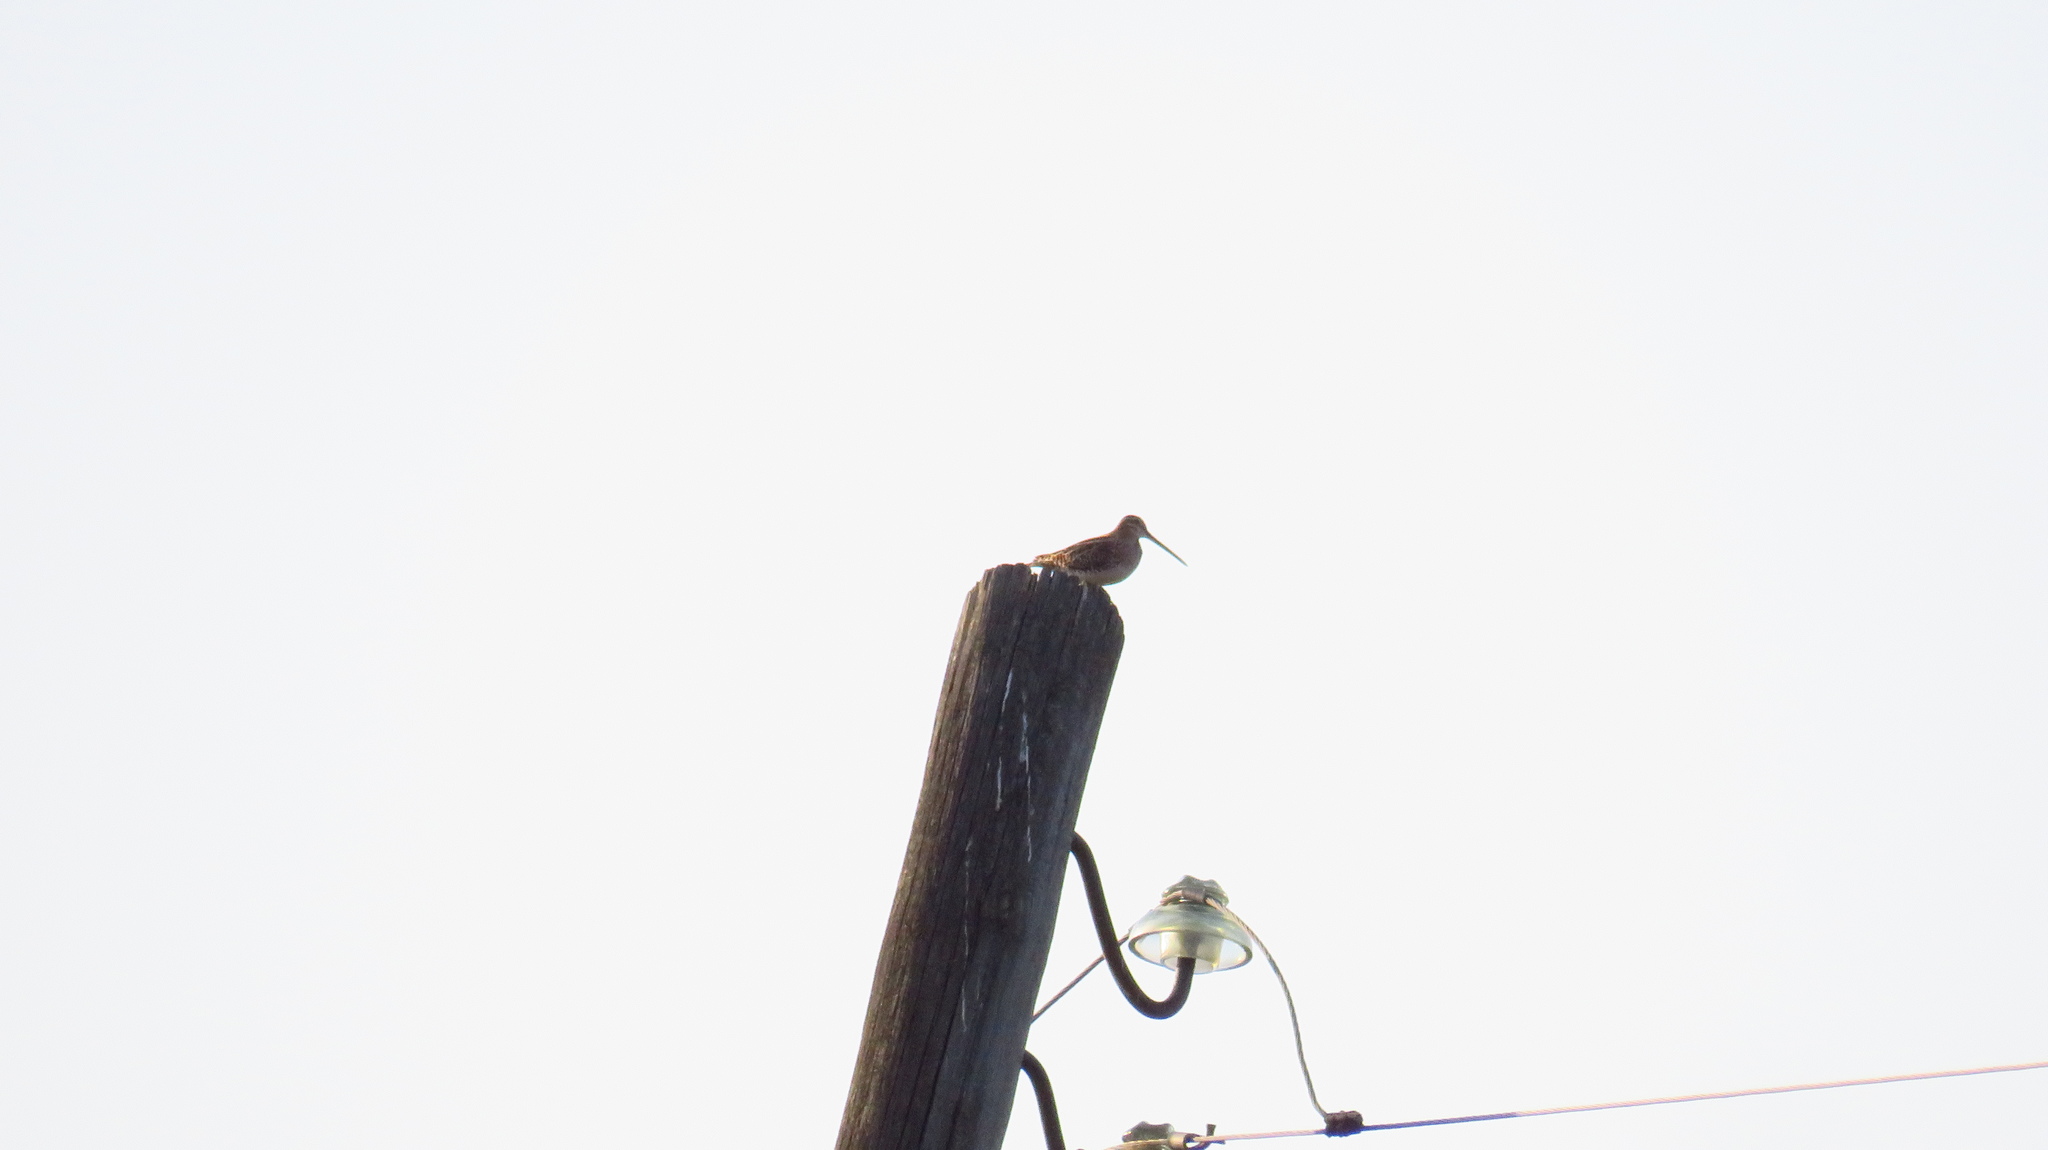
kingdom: Animalia
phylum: Chordata
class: Aves
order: Charadriiformes
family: Scolopacidae
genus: Gallinago
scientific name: Gallinago gallinago
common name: Common snipe
